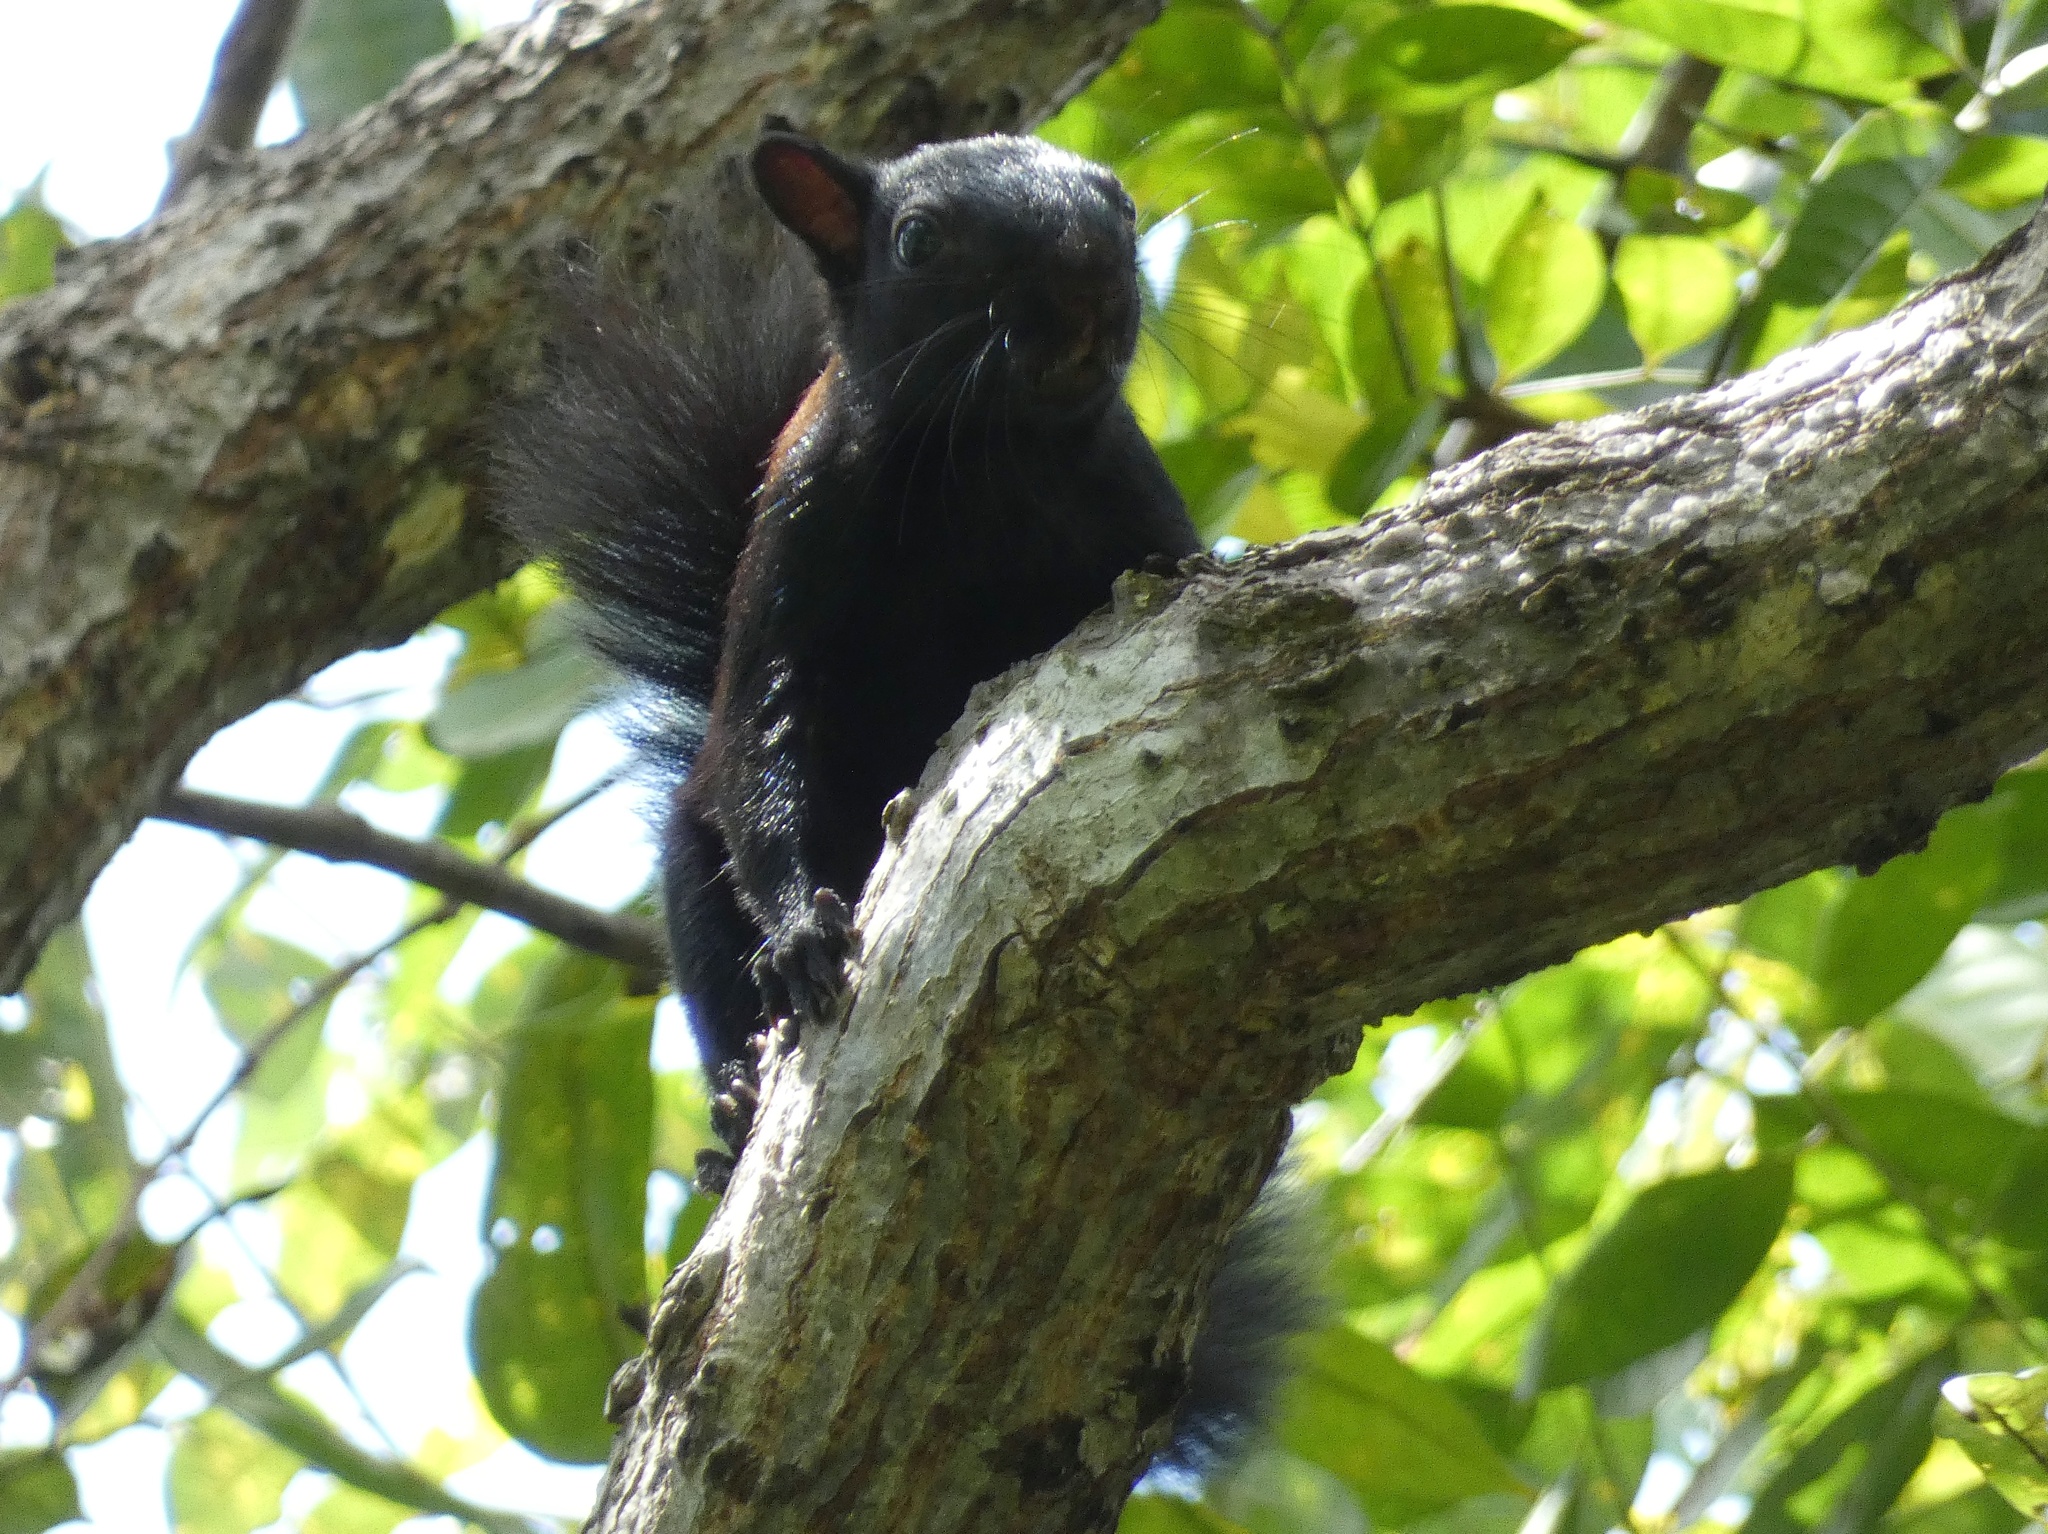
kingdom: Animalia
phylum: Chordata
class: Mammalia
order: Rodentia
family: Sciuridae
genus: Sciurus
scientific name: Sciurus variegatoides
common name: Variegated squirrel
